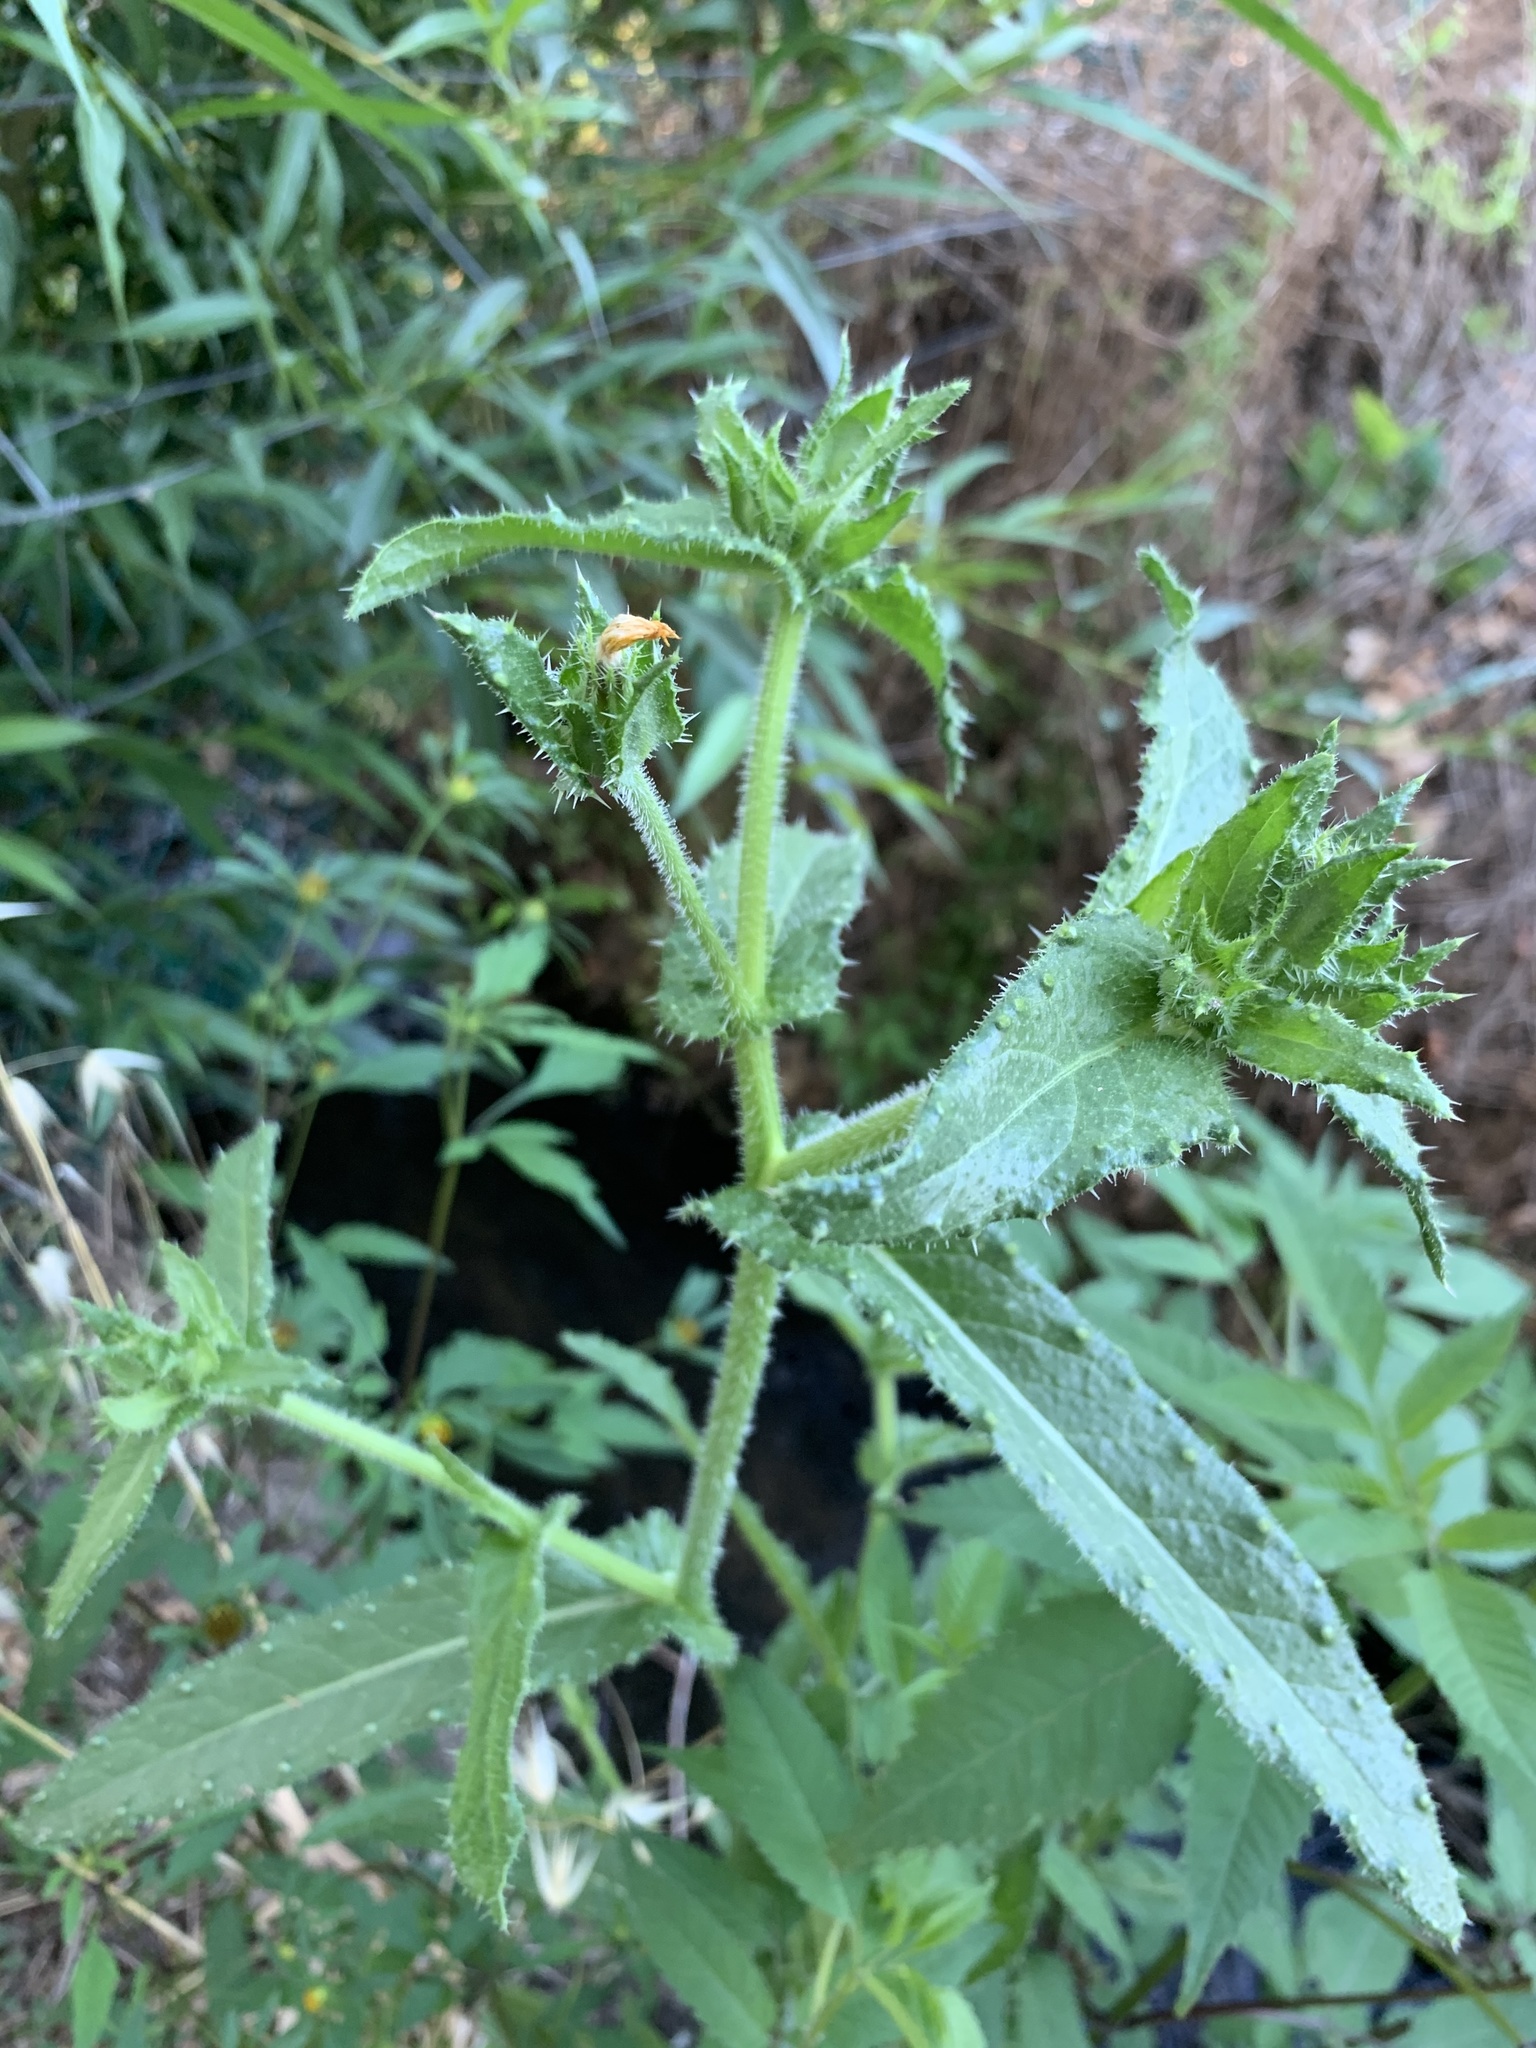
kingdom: Plantae
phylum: Tracheophyta
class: Magnoliopsida
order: Asterales
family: Asteraceae
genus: Helminthotheca
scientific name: Helminthotheca echioides
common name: Ox-tongue
